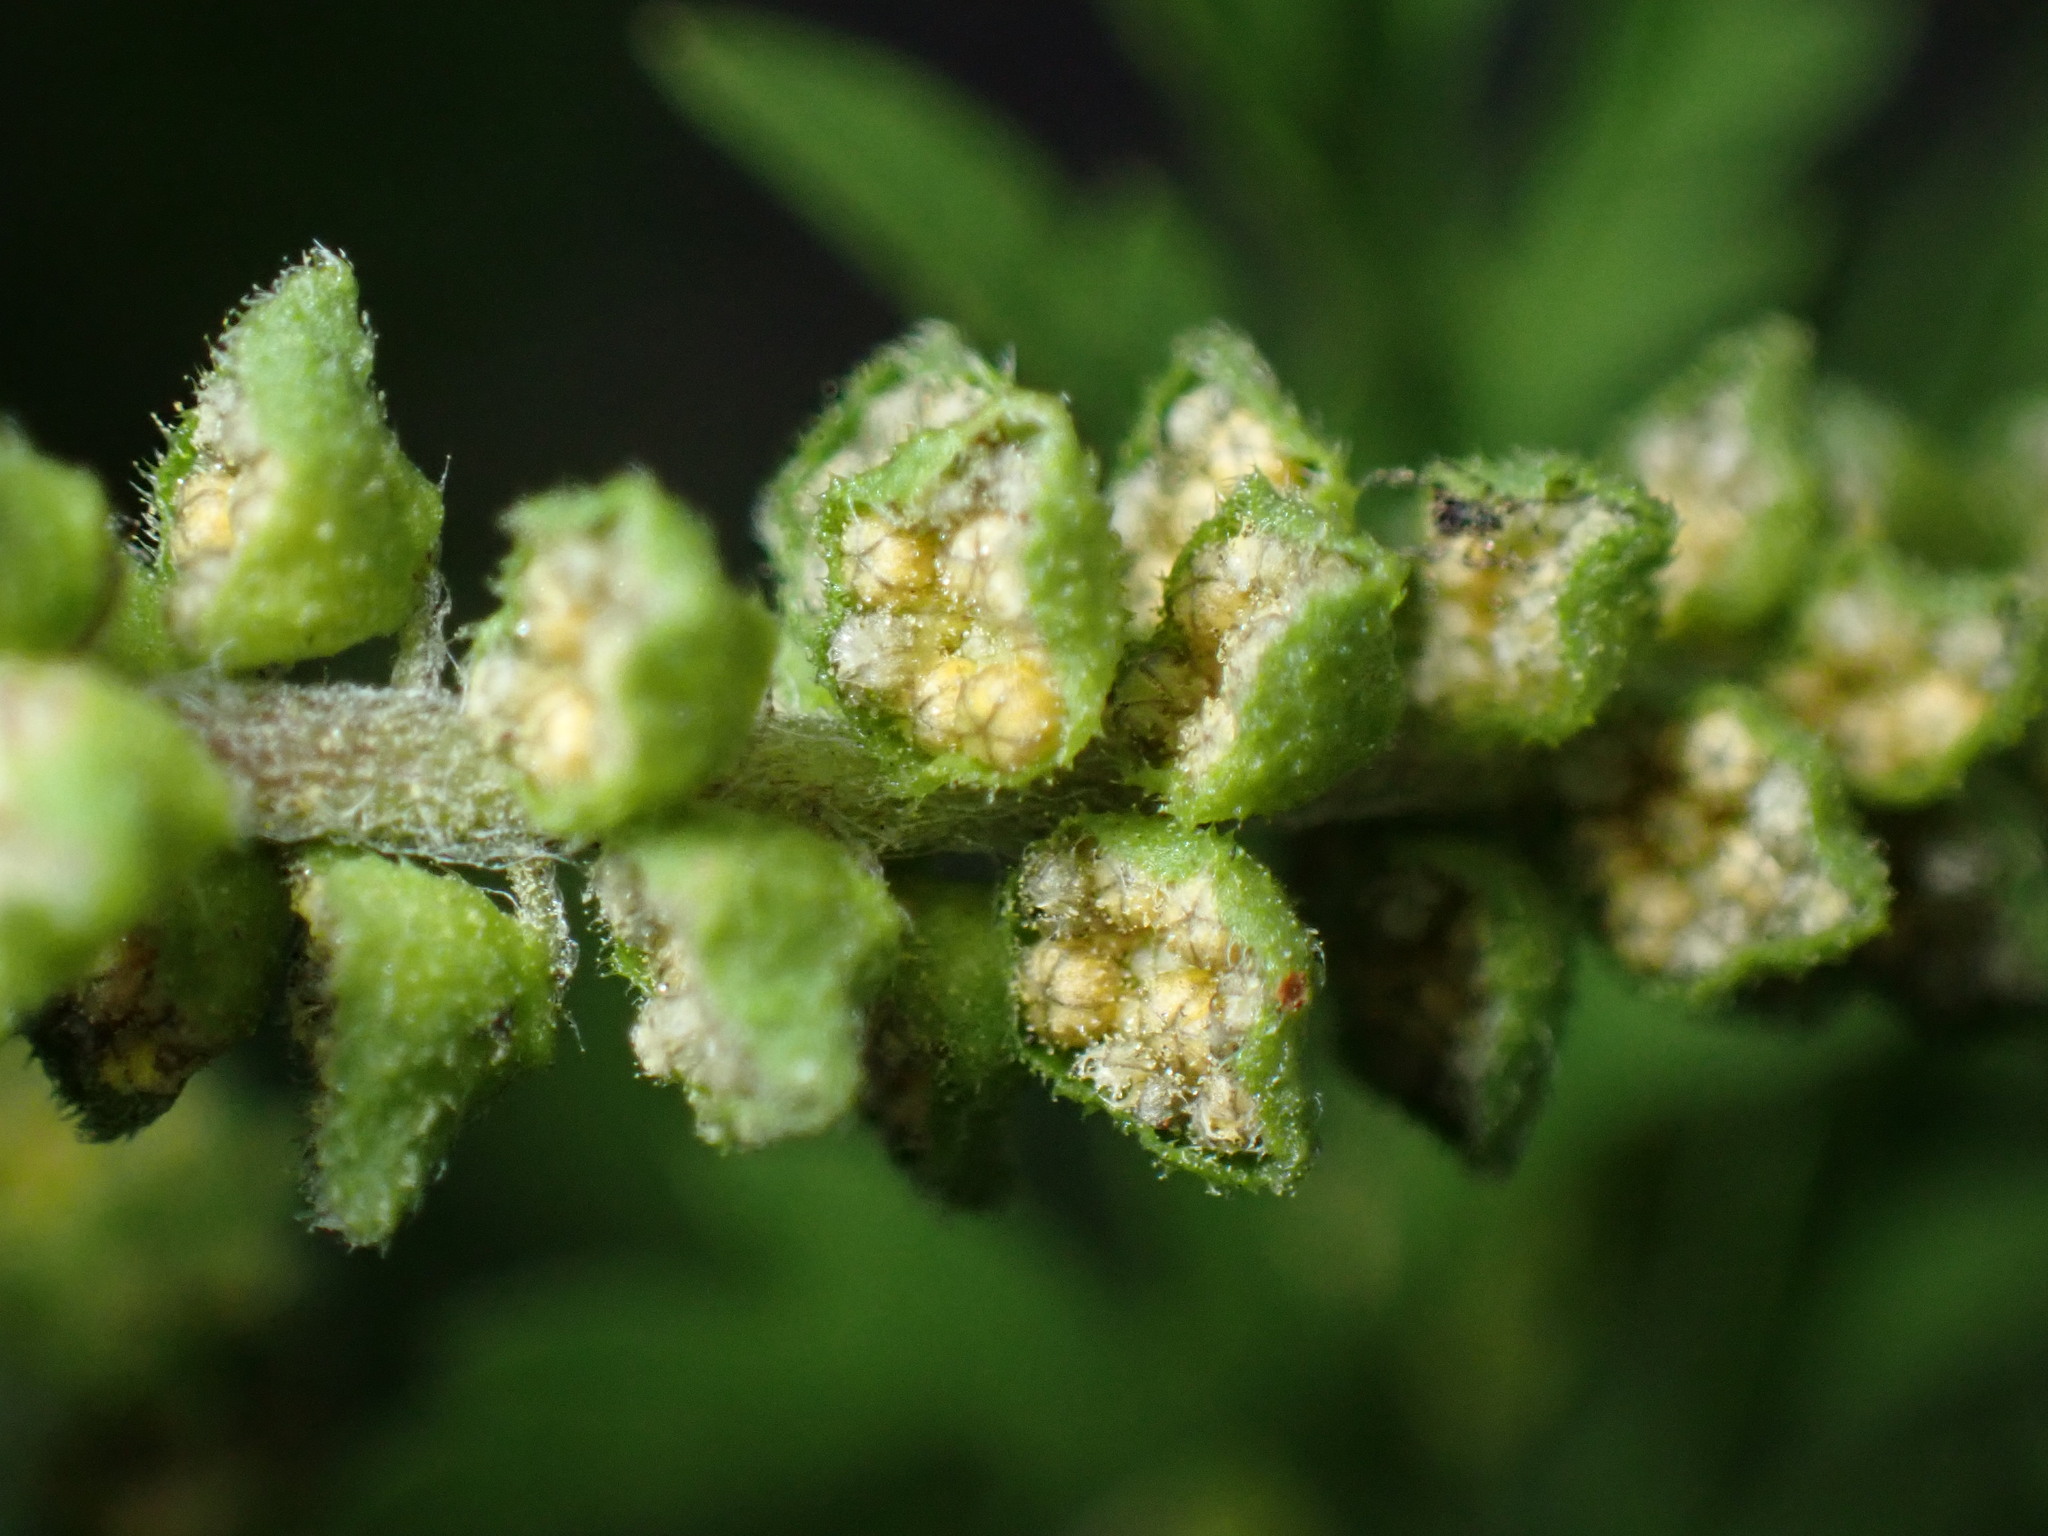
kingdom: Plantae
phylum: Tracheophyta
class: Magnoliopsida
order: Asterales
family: Asteraceae
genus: Ambrosia
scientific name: Ambrosia artemisiifolia
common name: Annual ragweed
